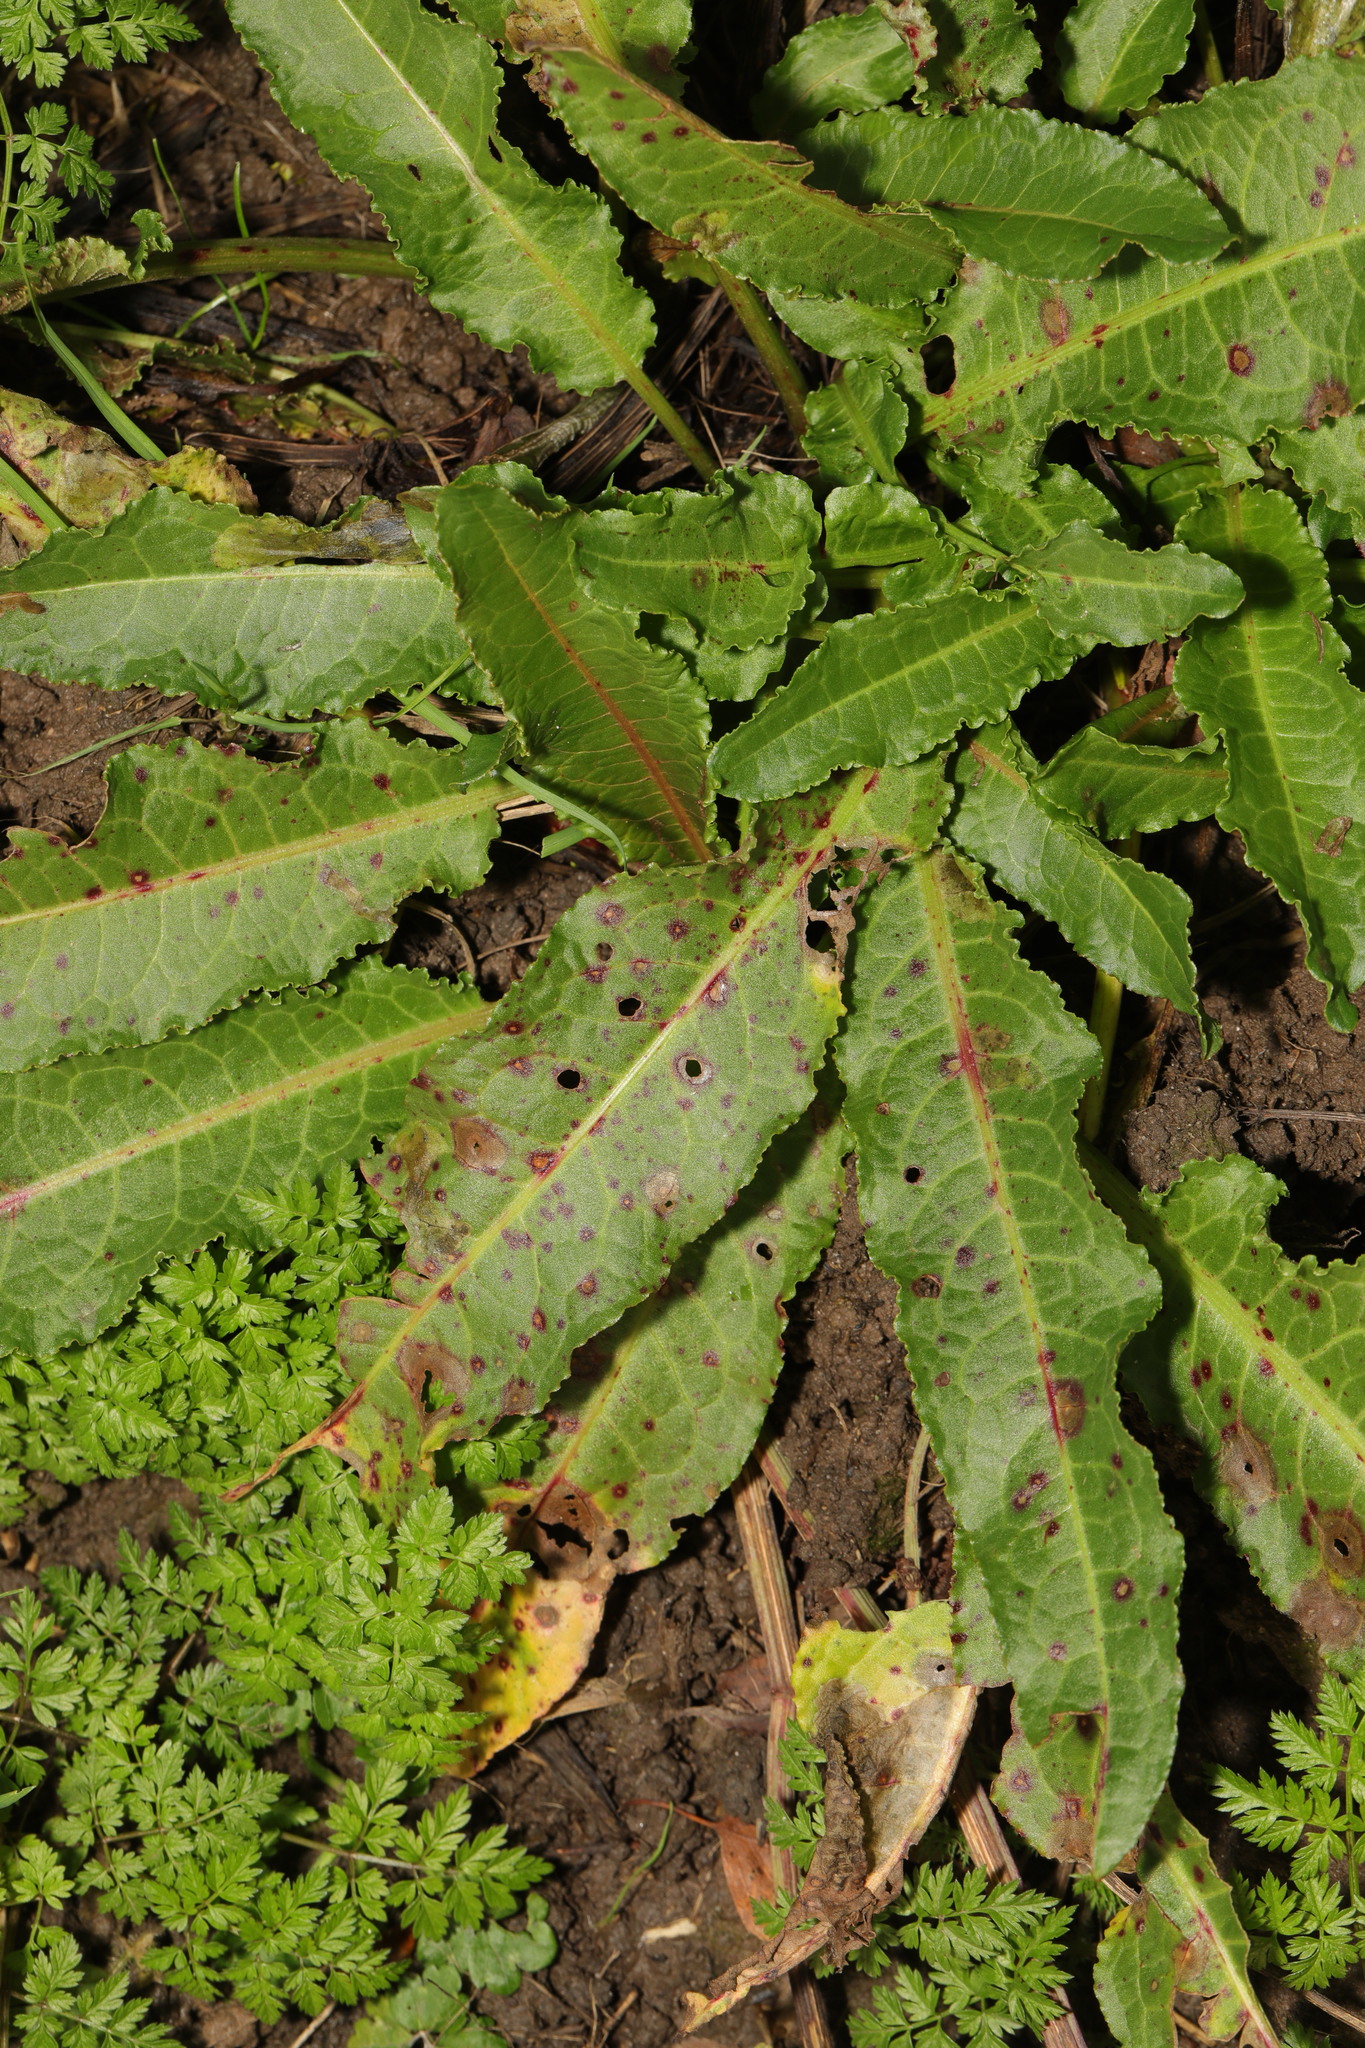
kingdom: Plantae
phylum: Tracheophyta
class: Magnoliopsida
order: Caryophyllales
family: Polygonaceae
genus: Rumex
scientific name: Rumex acutus
